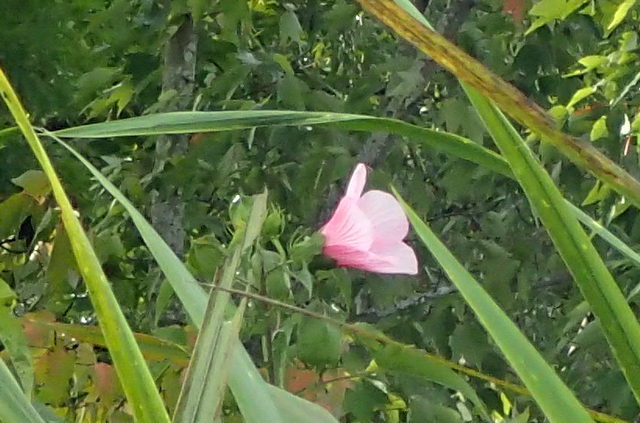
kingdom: Plantae
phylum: Tracheophyta
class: Magnoliopsida
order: Malvales
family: Malvaceae
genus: Hibiscus
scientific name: Hibiscus laevis
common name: Scarlet rose-mallow
